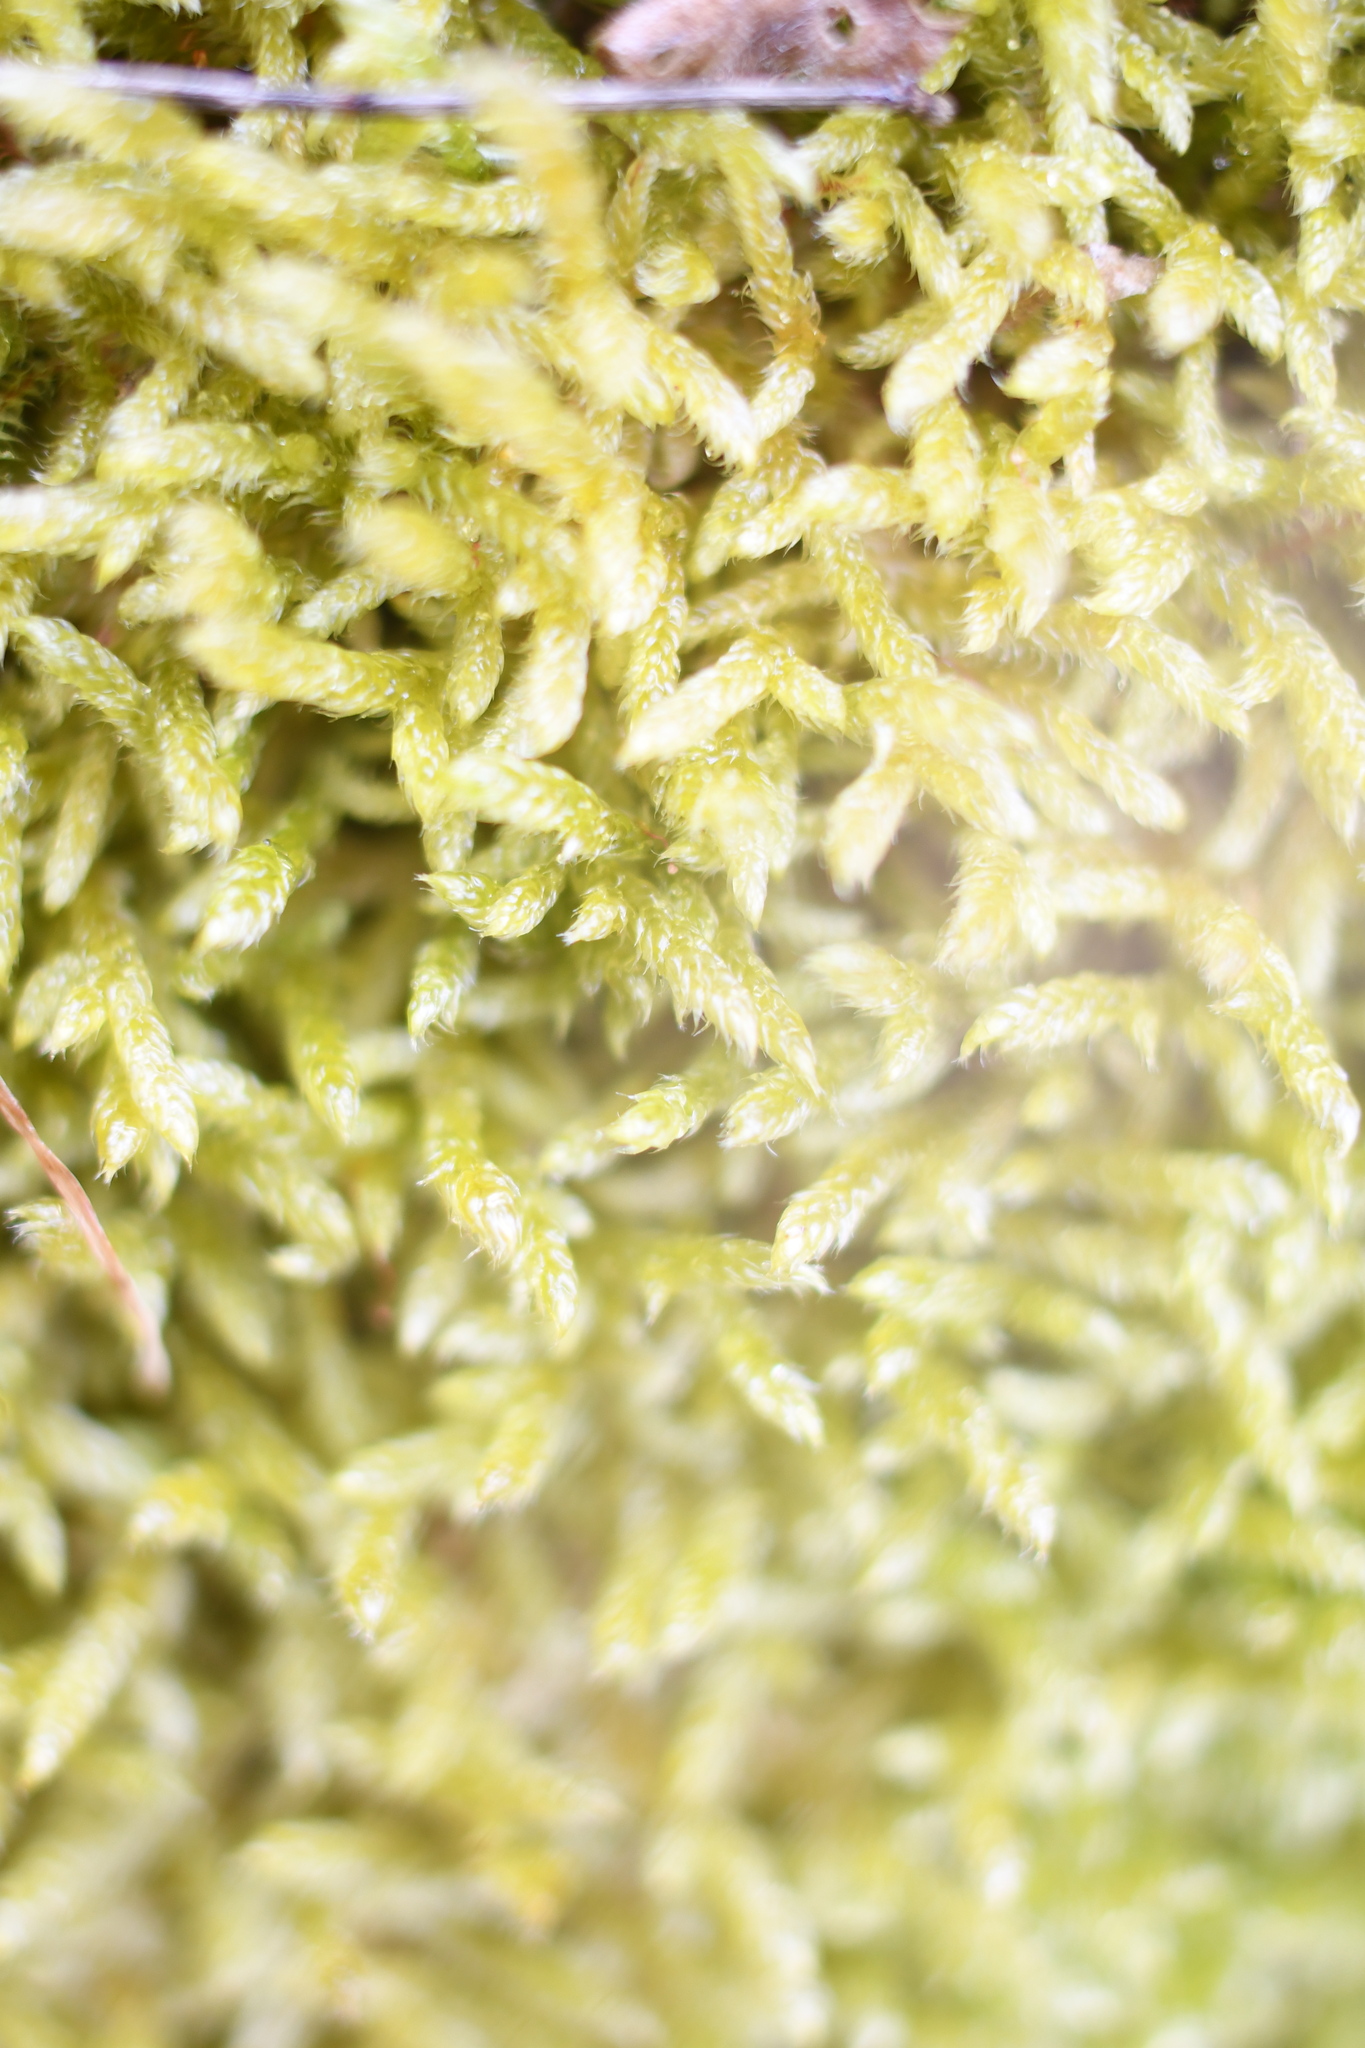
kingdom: Plantae
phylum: Bryophyta
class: Bryopsida
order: Hypnales
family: Hypnaceae
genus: Hypnum
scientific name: Hypnum cupressiforme
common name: Cypress-leaved plait-moss
